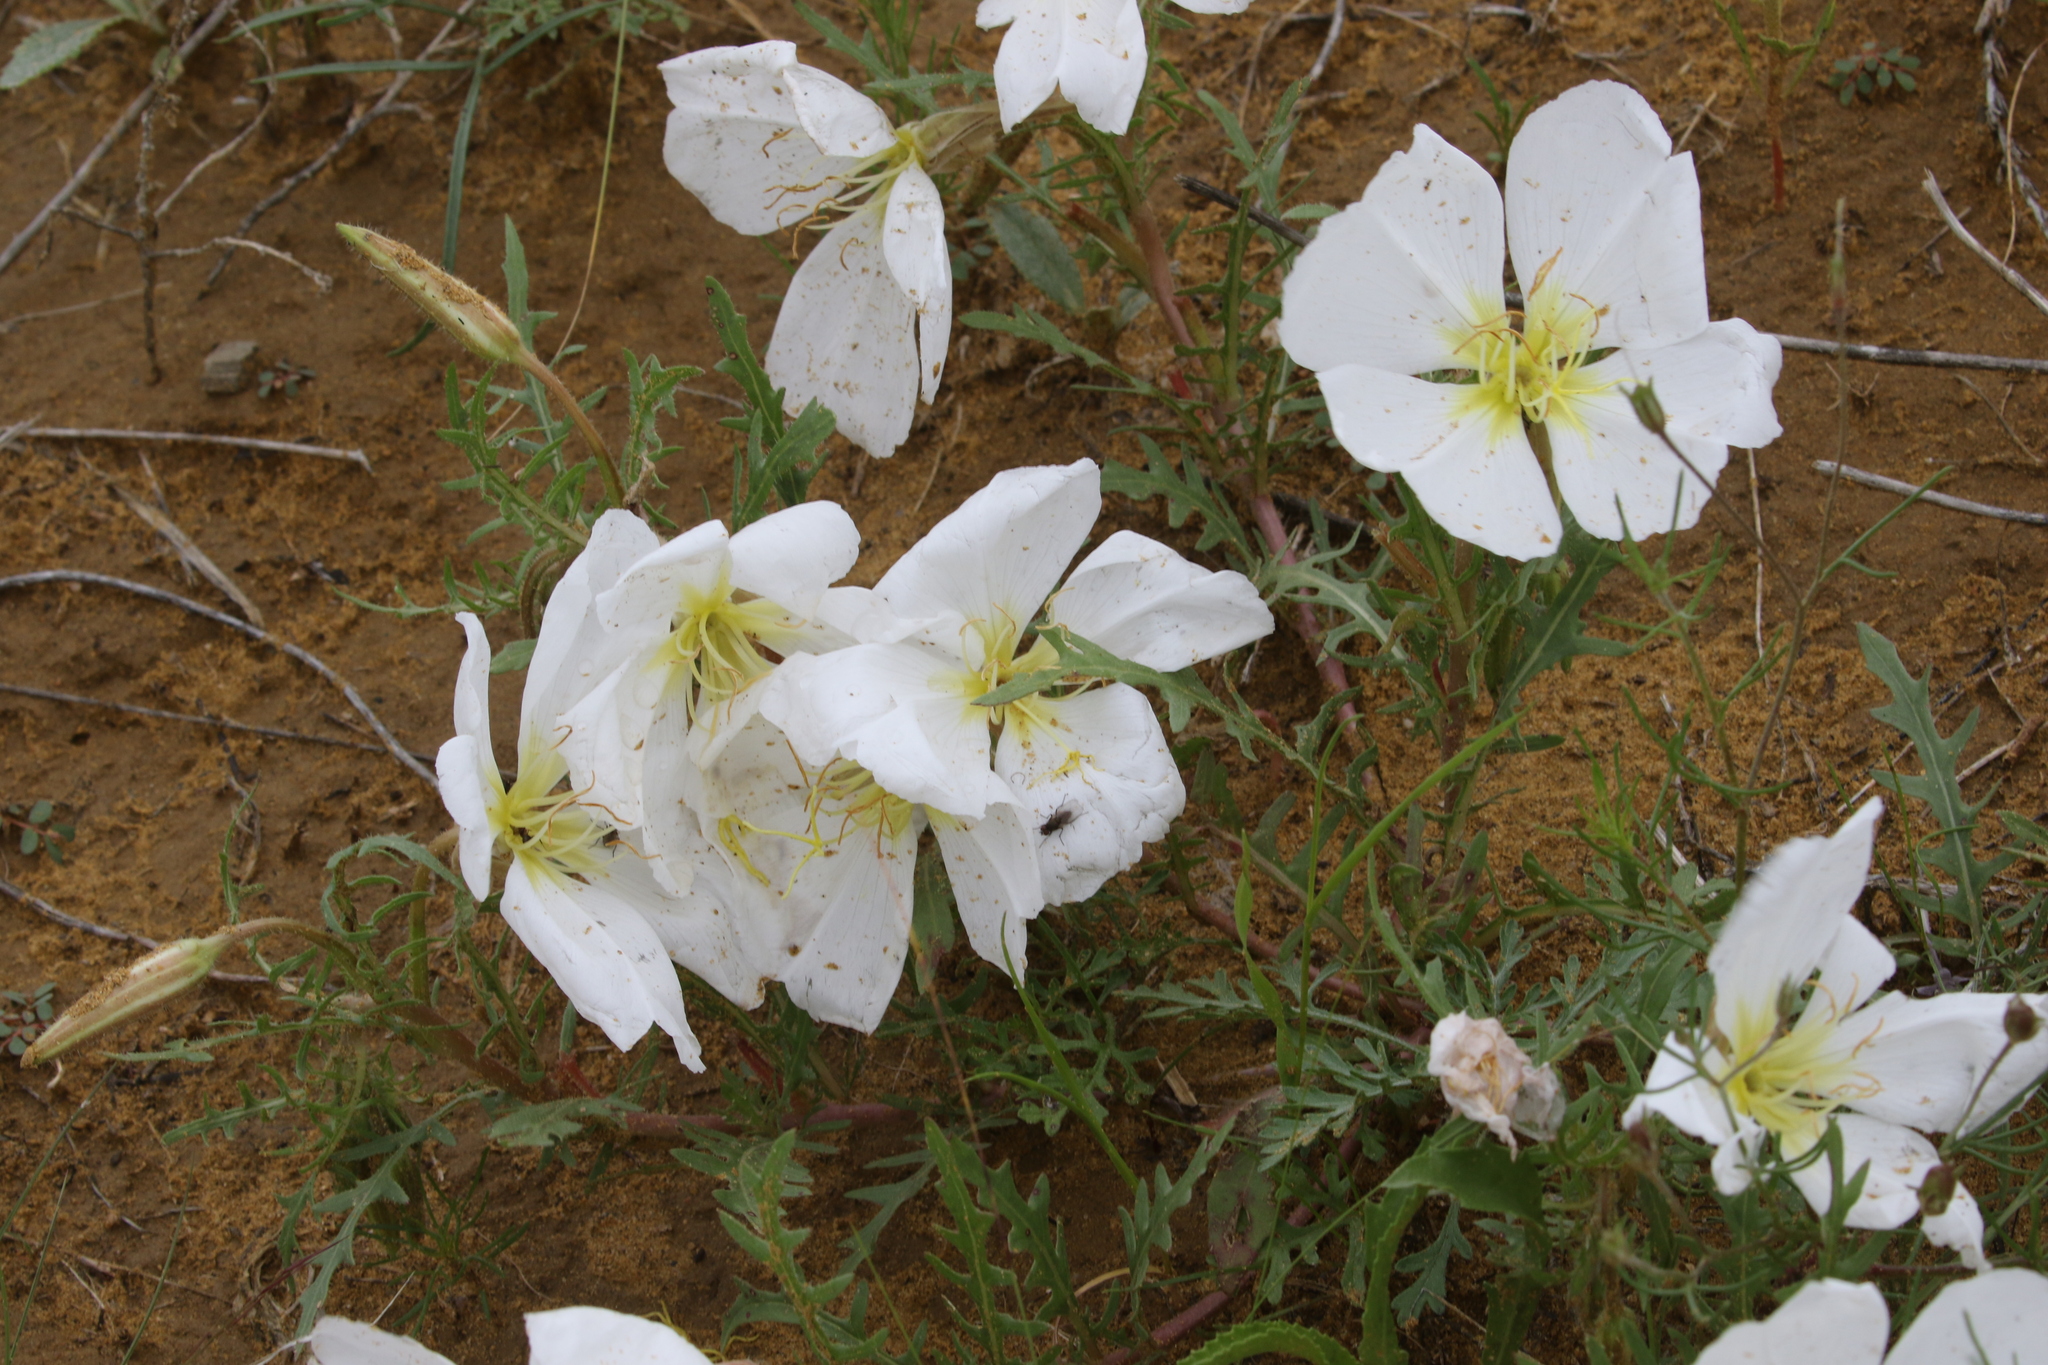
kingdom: Plantae
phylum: Tracheophyta
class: Magnoliopsida
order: Myrtales
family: Onagraceae
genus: Oenothera
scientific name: Oenothera albicaulis
